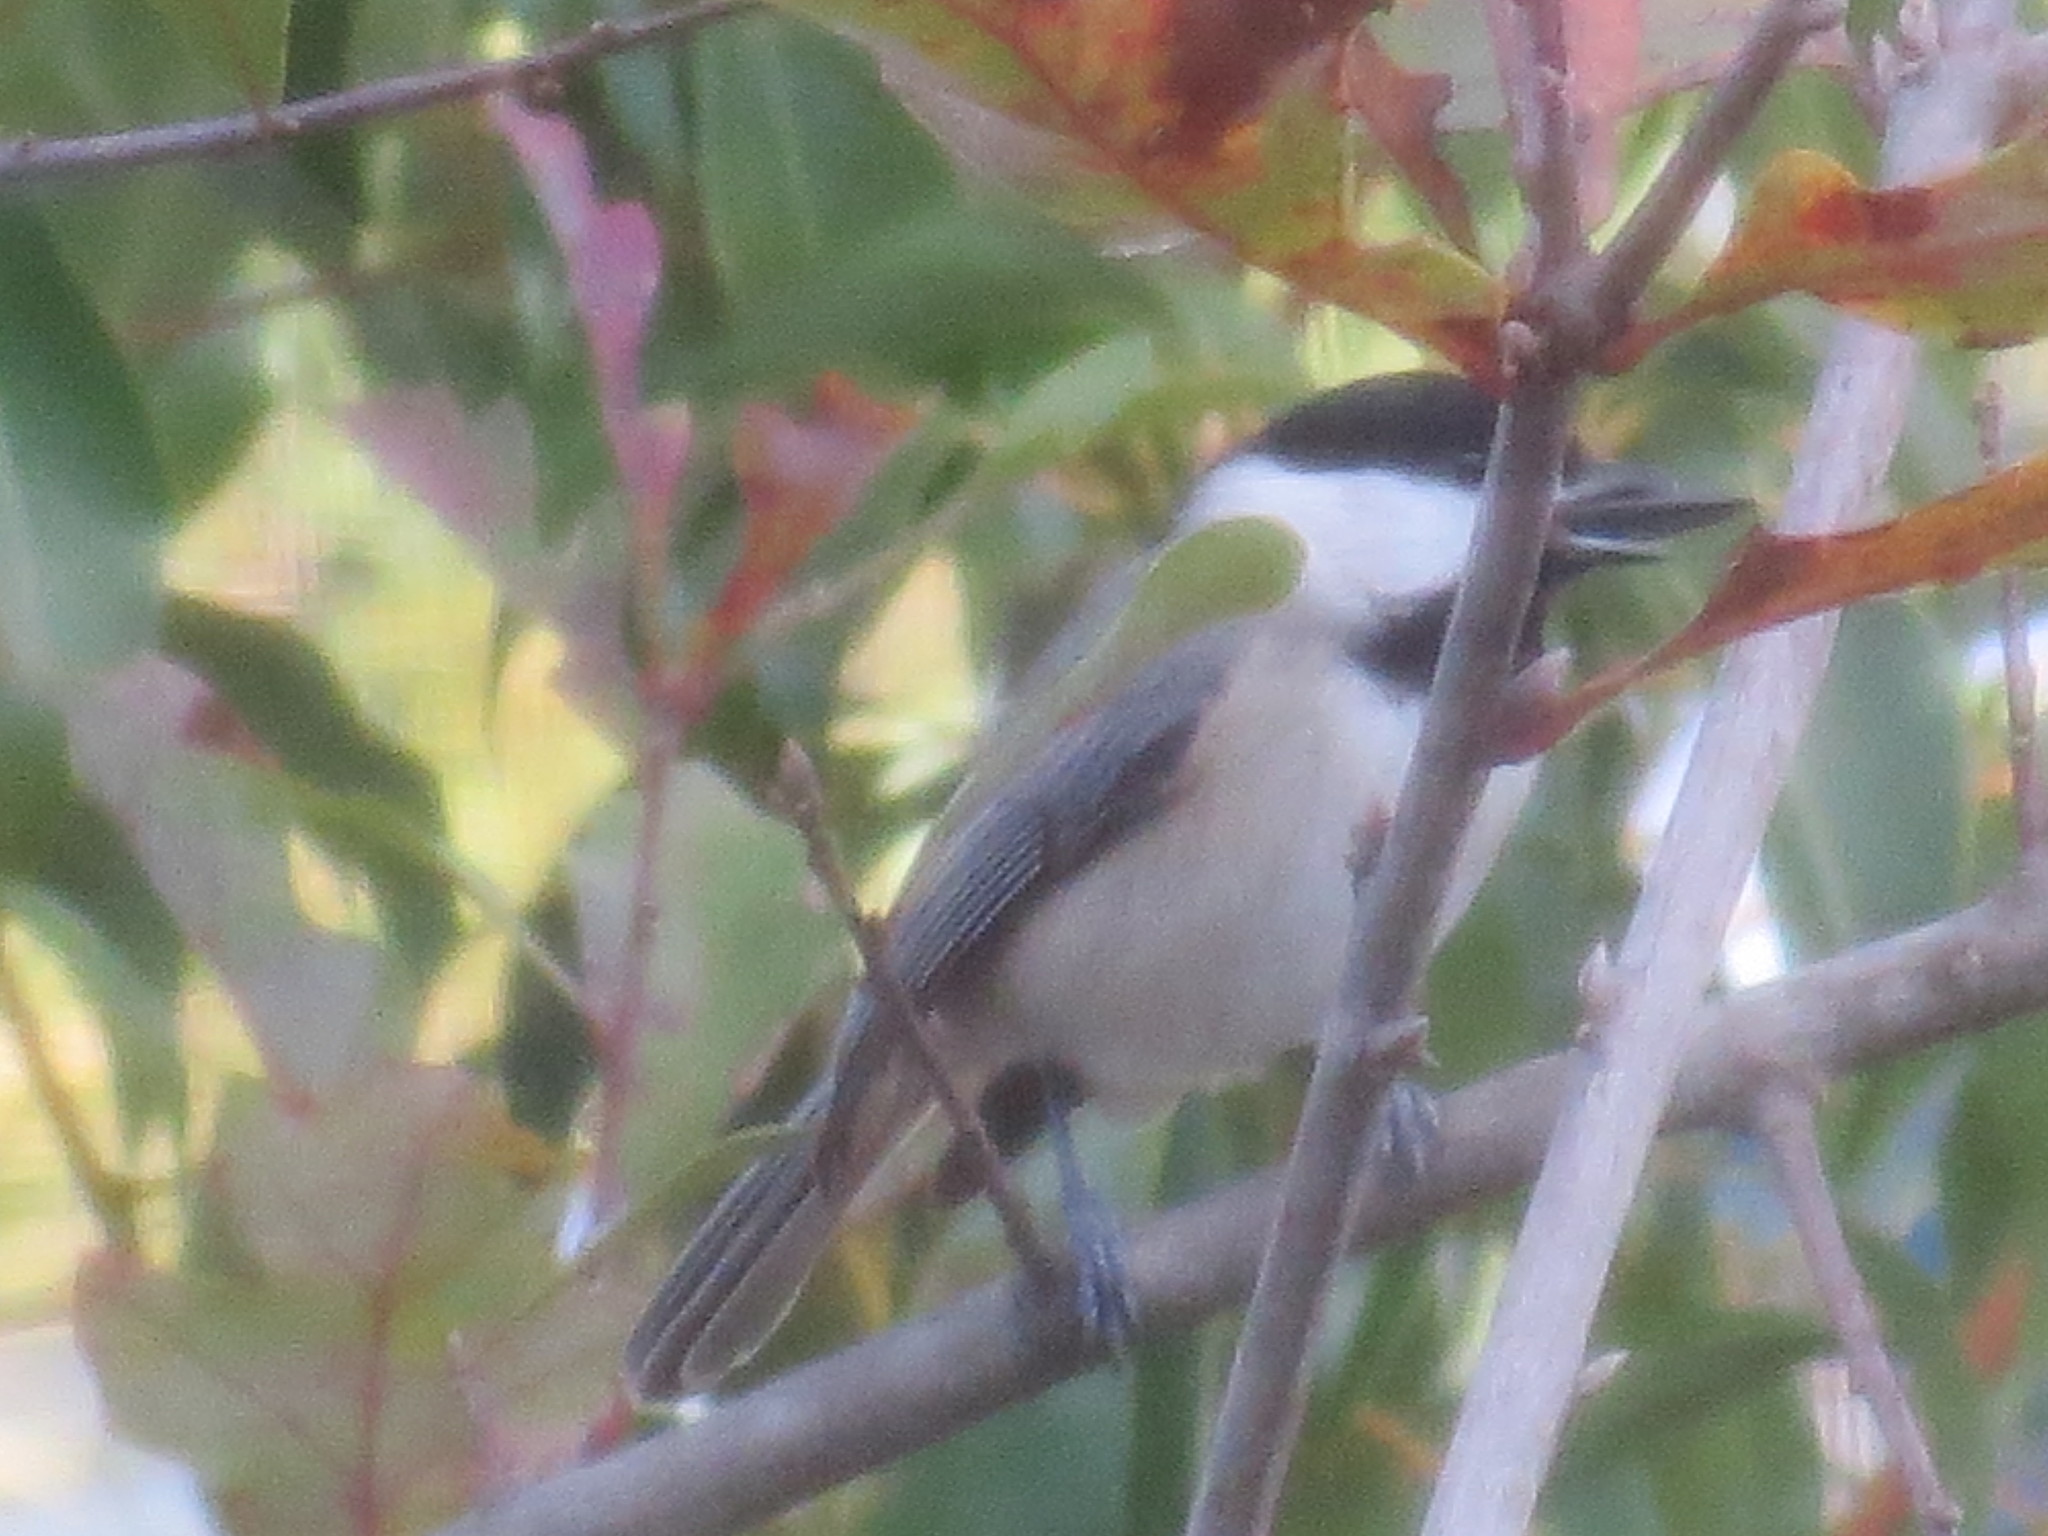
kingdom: Animalia
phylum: Chordata
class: Aves
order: Passeriformes
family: Paridae
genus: Poecile
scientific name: Poecile carolinensis
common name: Carolina chickadee
